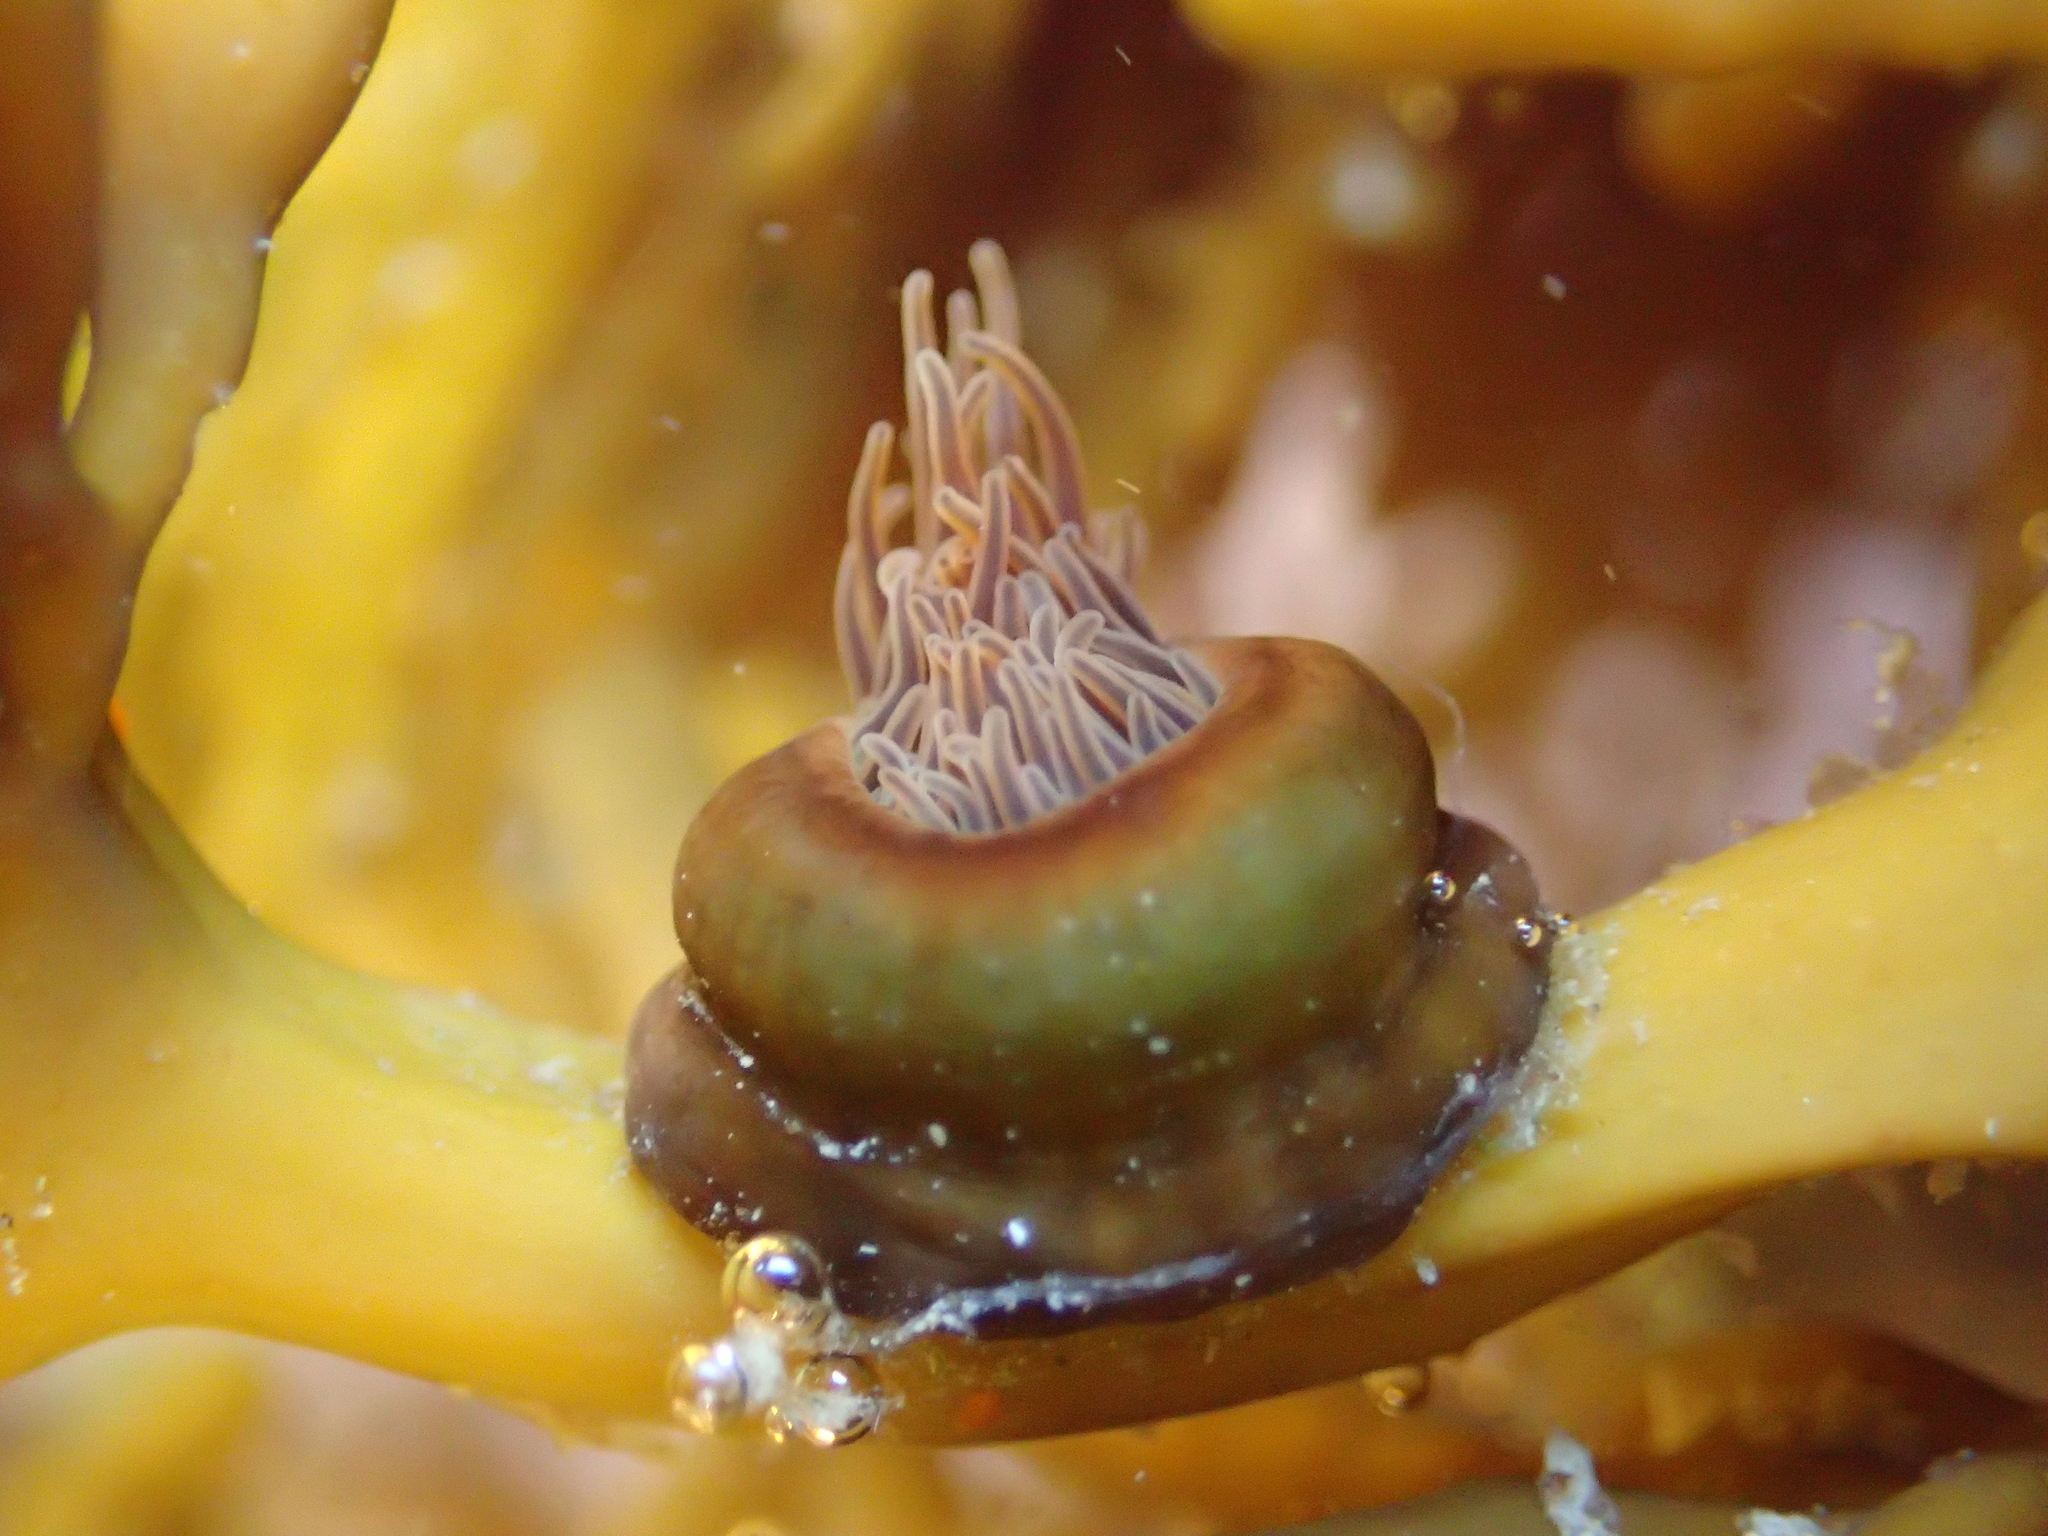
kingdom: Animalia
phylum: Cnidaria
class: Anthozoa
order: Actiniaria
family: Hormathiidae
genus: Handactis
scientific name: Handactis nutrix
